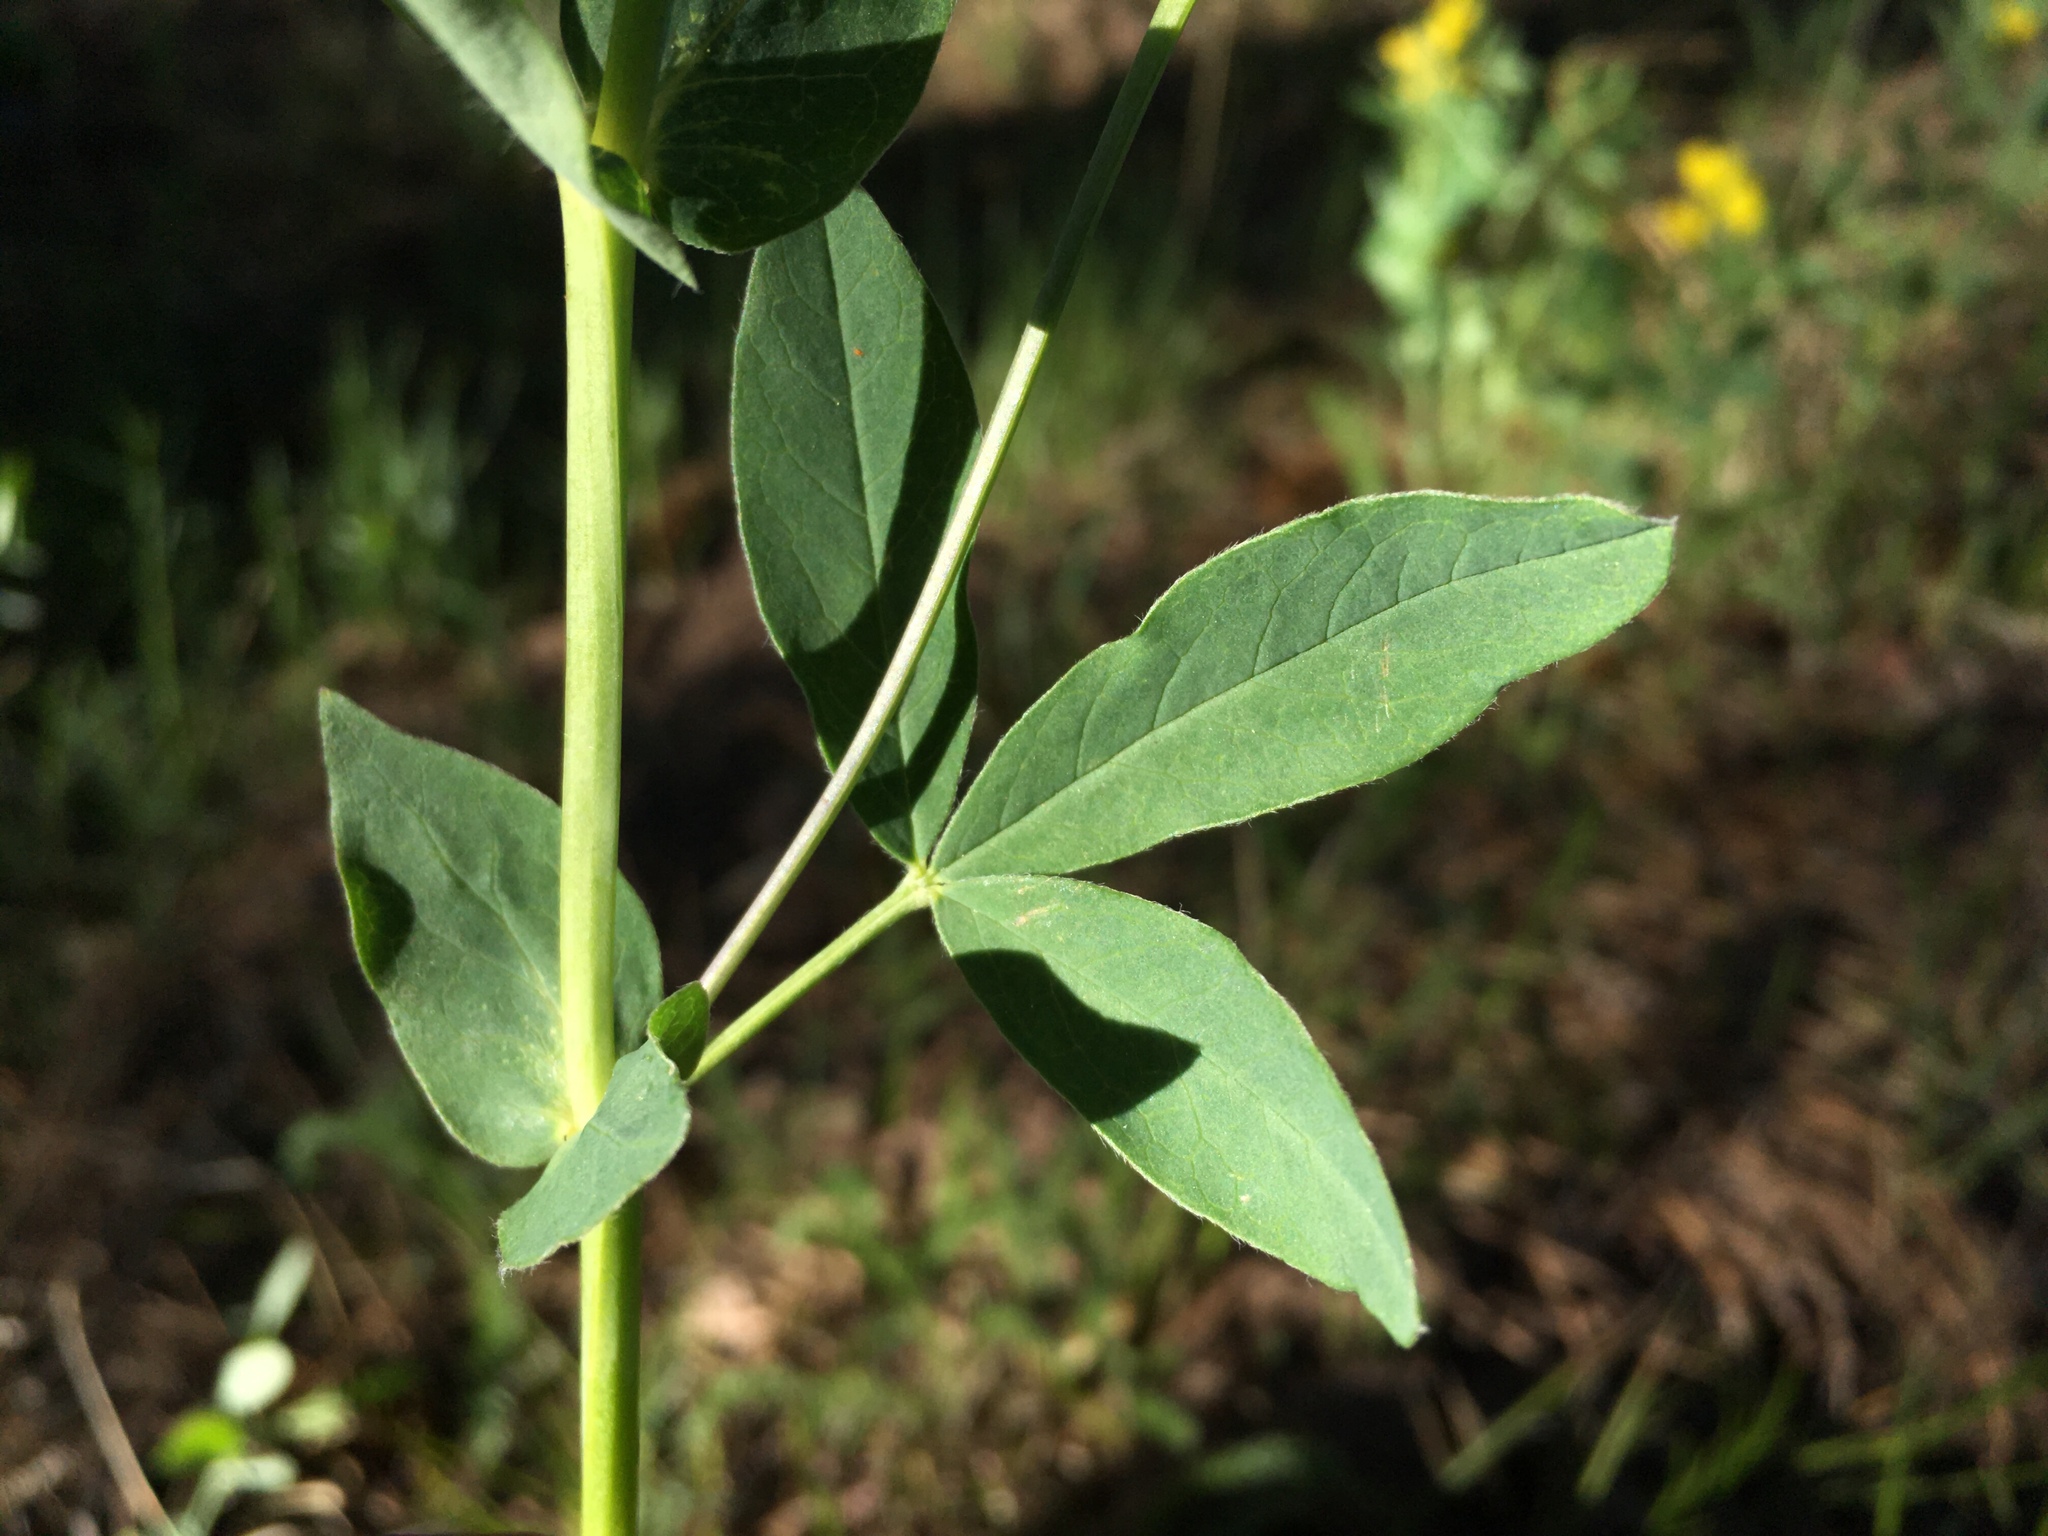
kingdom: Plantae
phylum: Tracheophyta
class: Magnoliopsida
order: Fabales
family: Fabaceae
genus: Thermopsis
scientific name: Thermopsis montana
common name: False lupin
